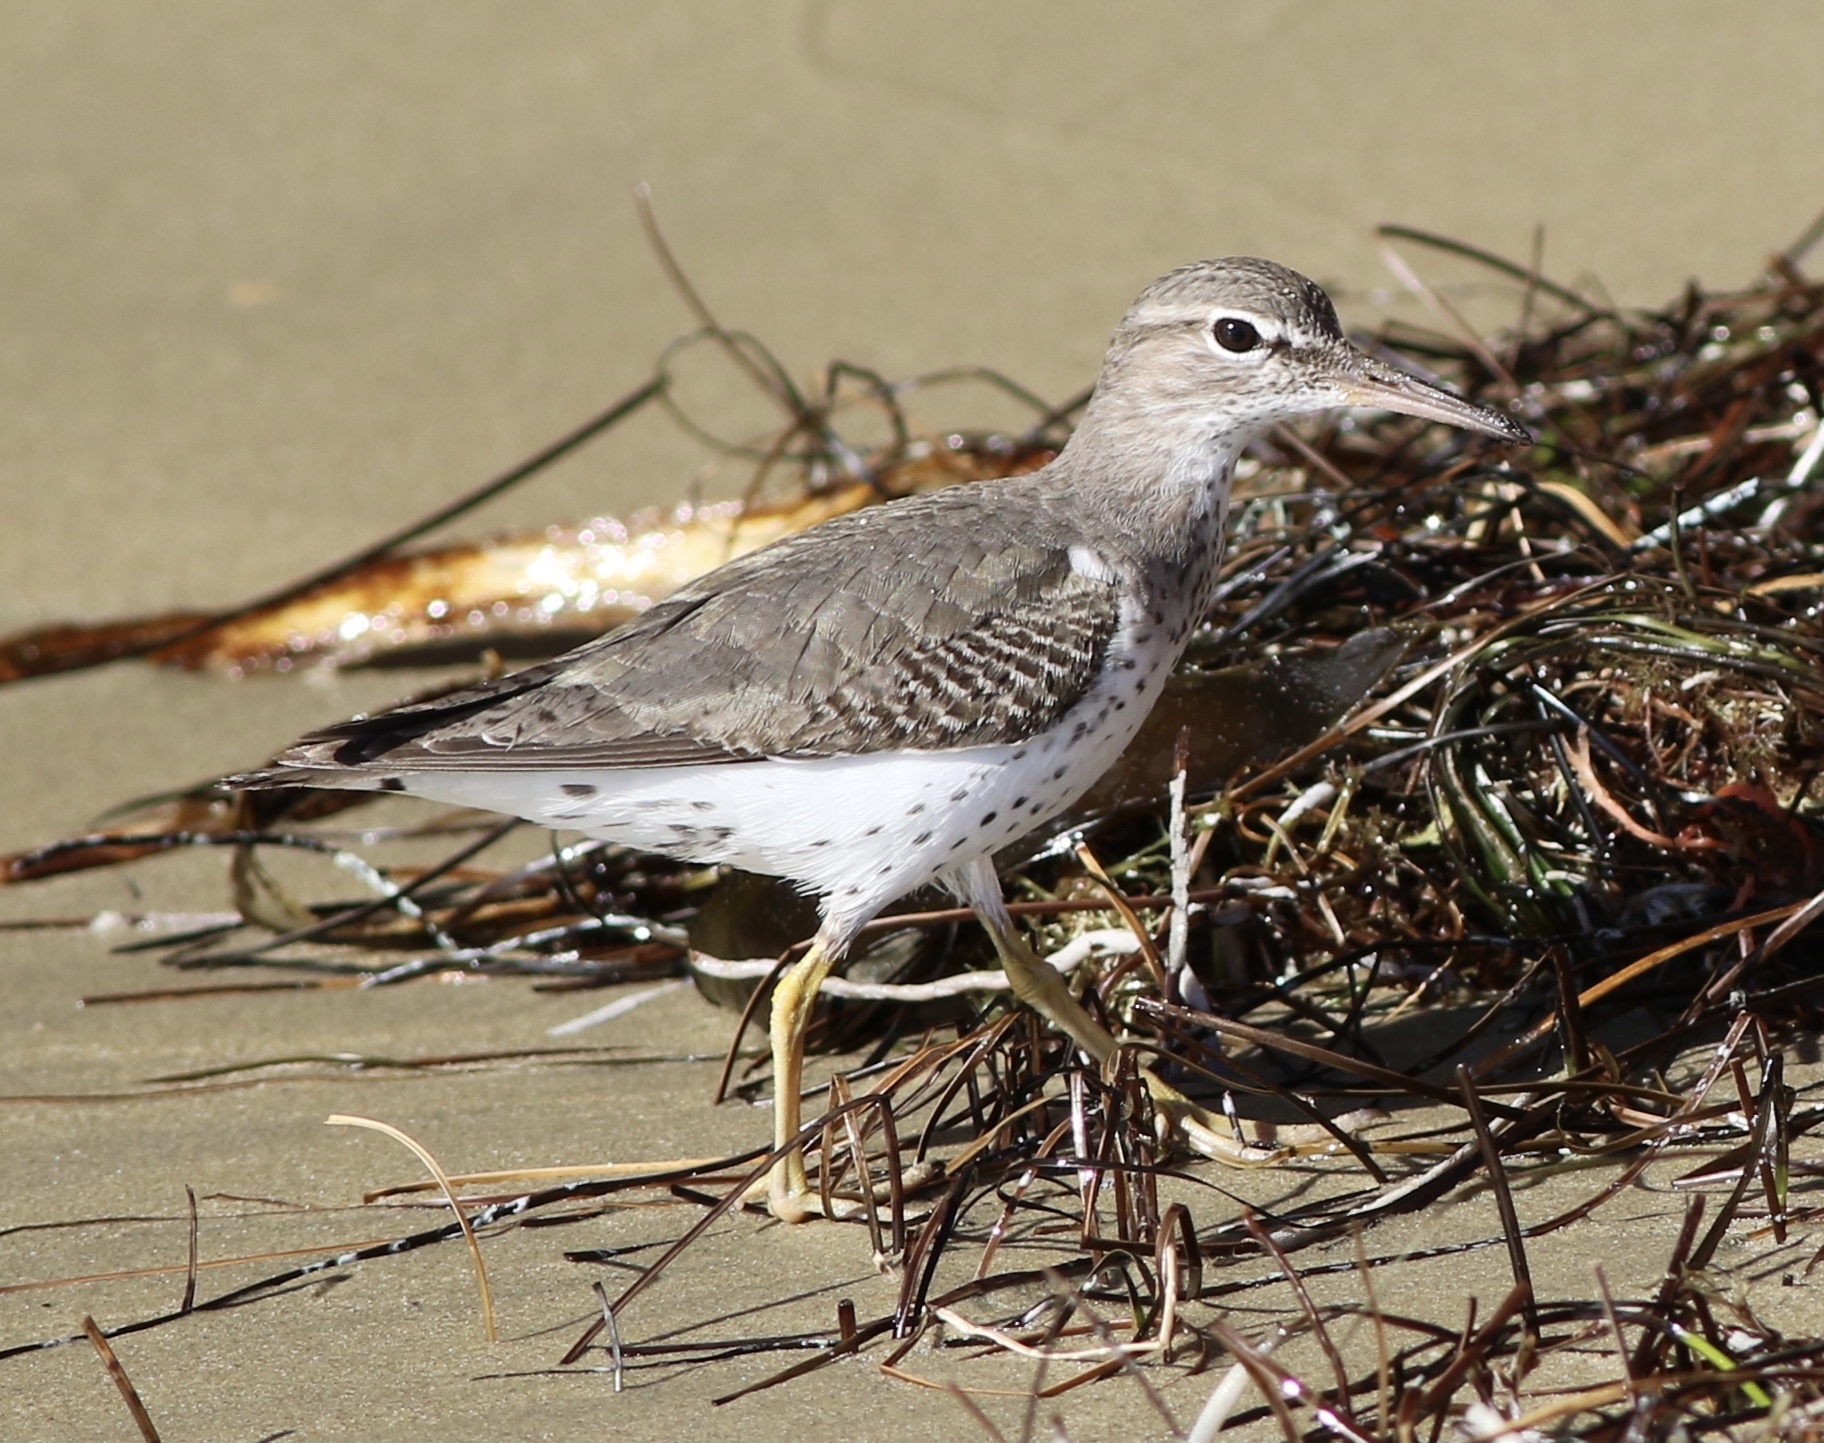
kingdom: Animalia
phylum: Chordata
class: Aves
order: Charadriiformes
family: Scolopacidae
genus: Actitis
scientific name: Actitis macularius
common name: Spotted sandpiper
